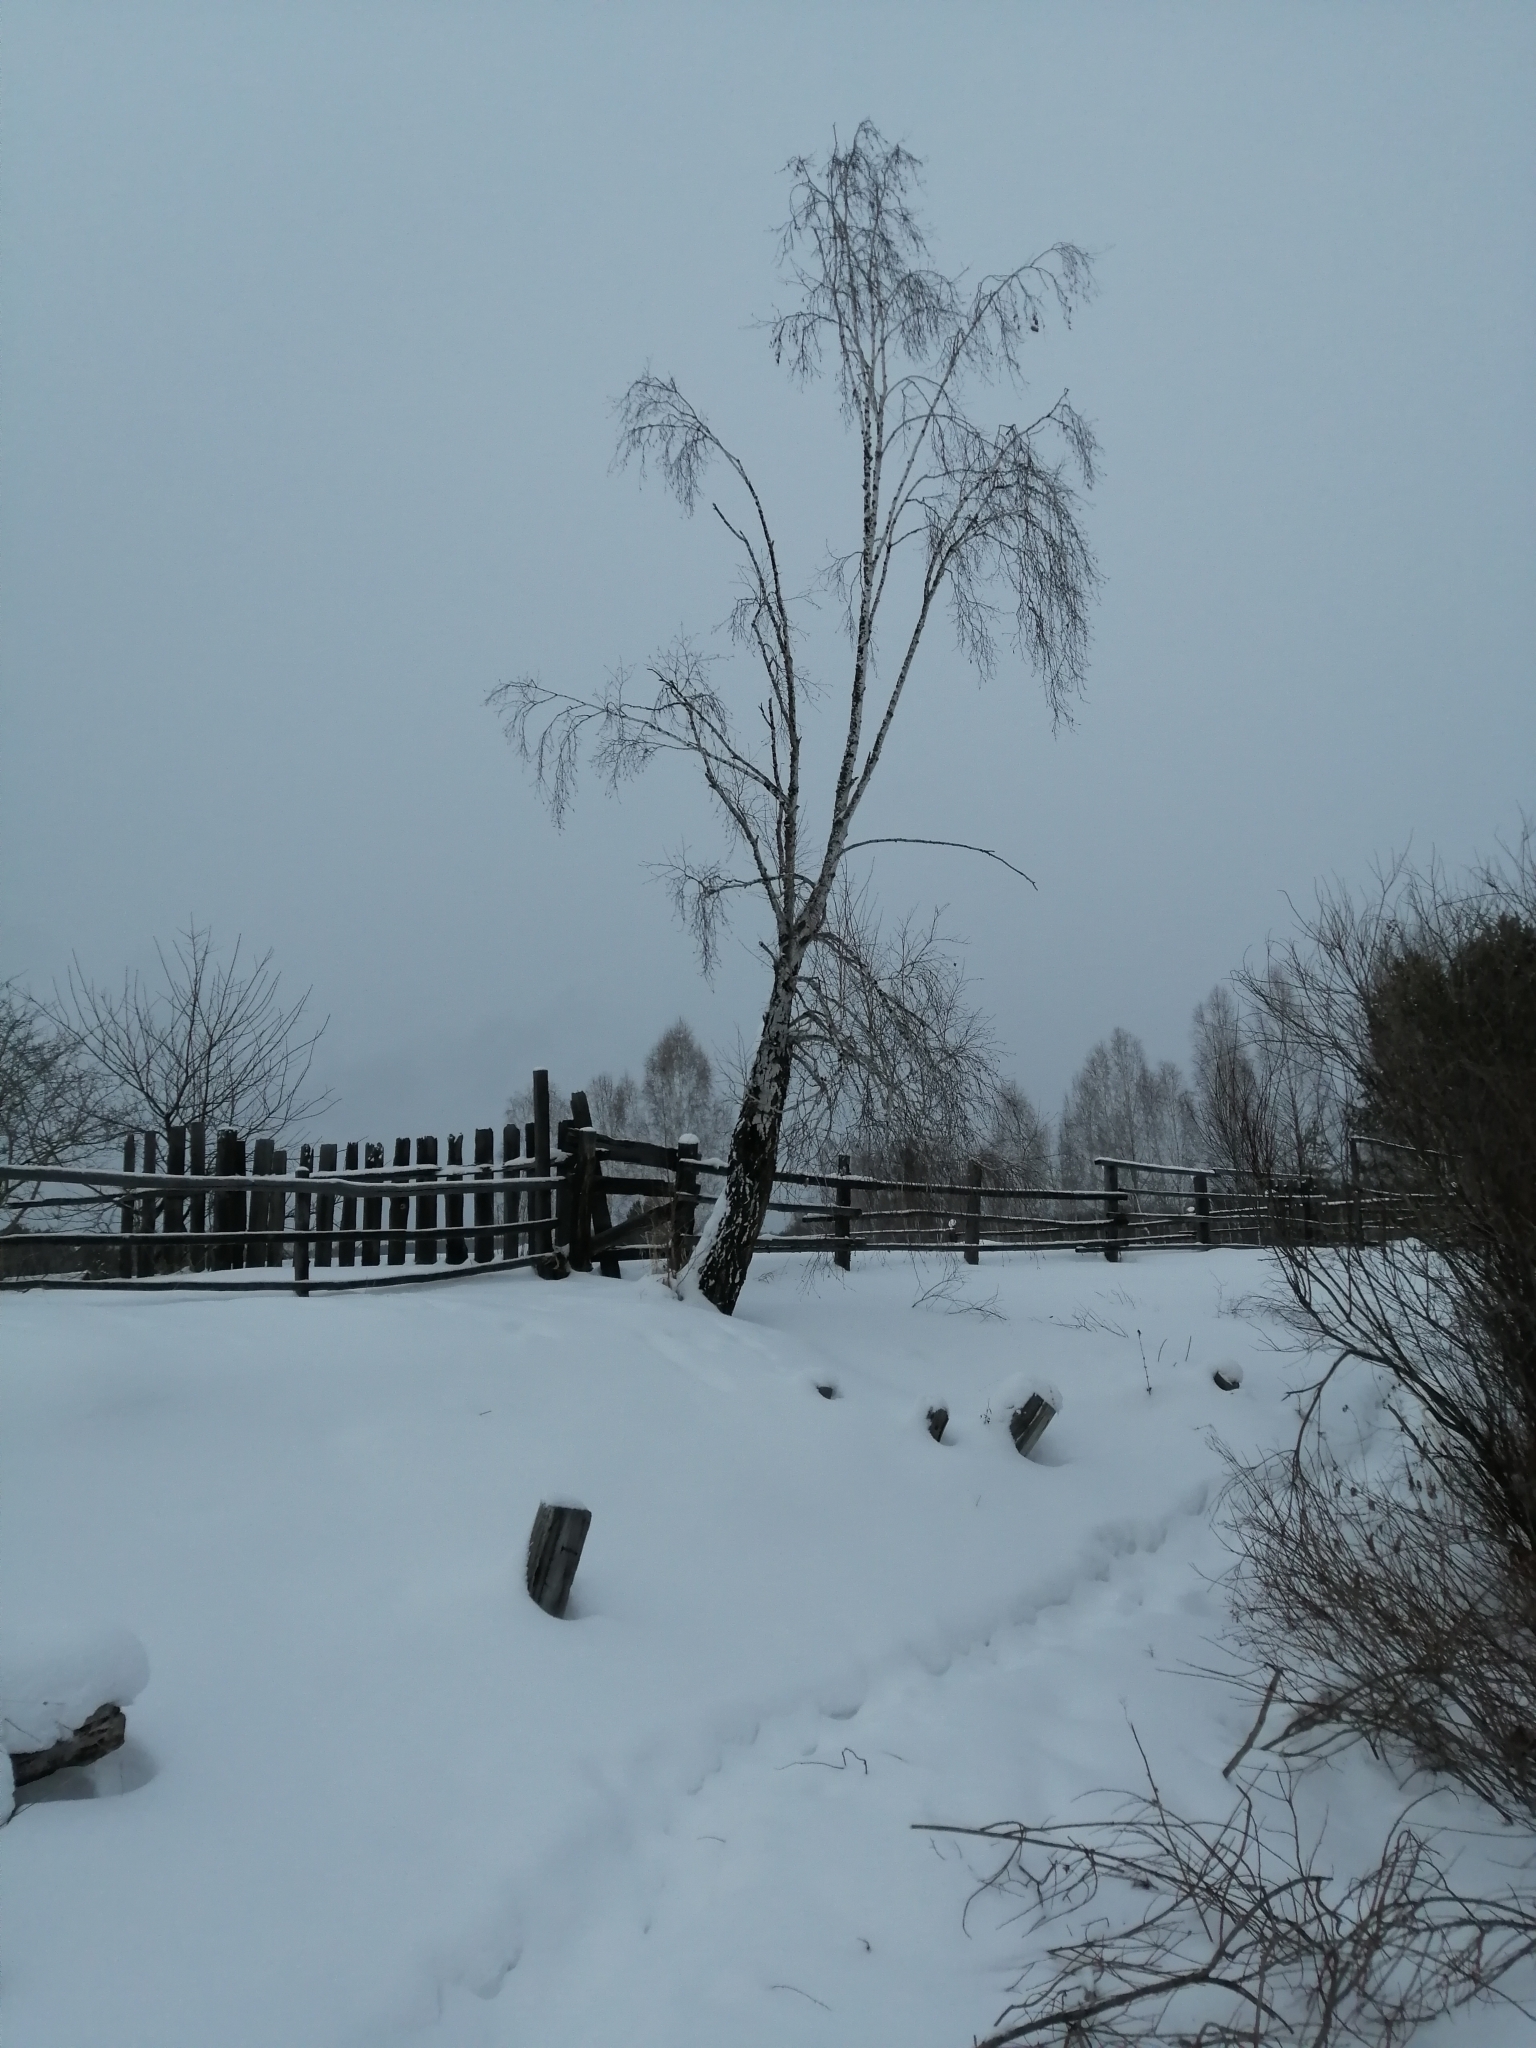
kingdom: Plantae
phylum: Tracheophyta
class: Magnoliopsida
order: Fagales
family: Betulaceae
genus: Betula
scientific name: Betula pendula
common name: Silver birch
